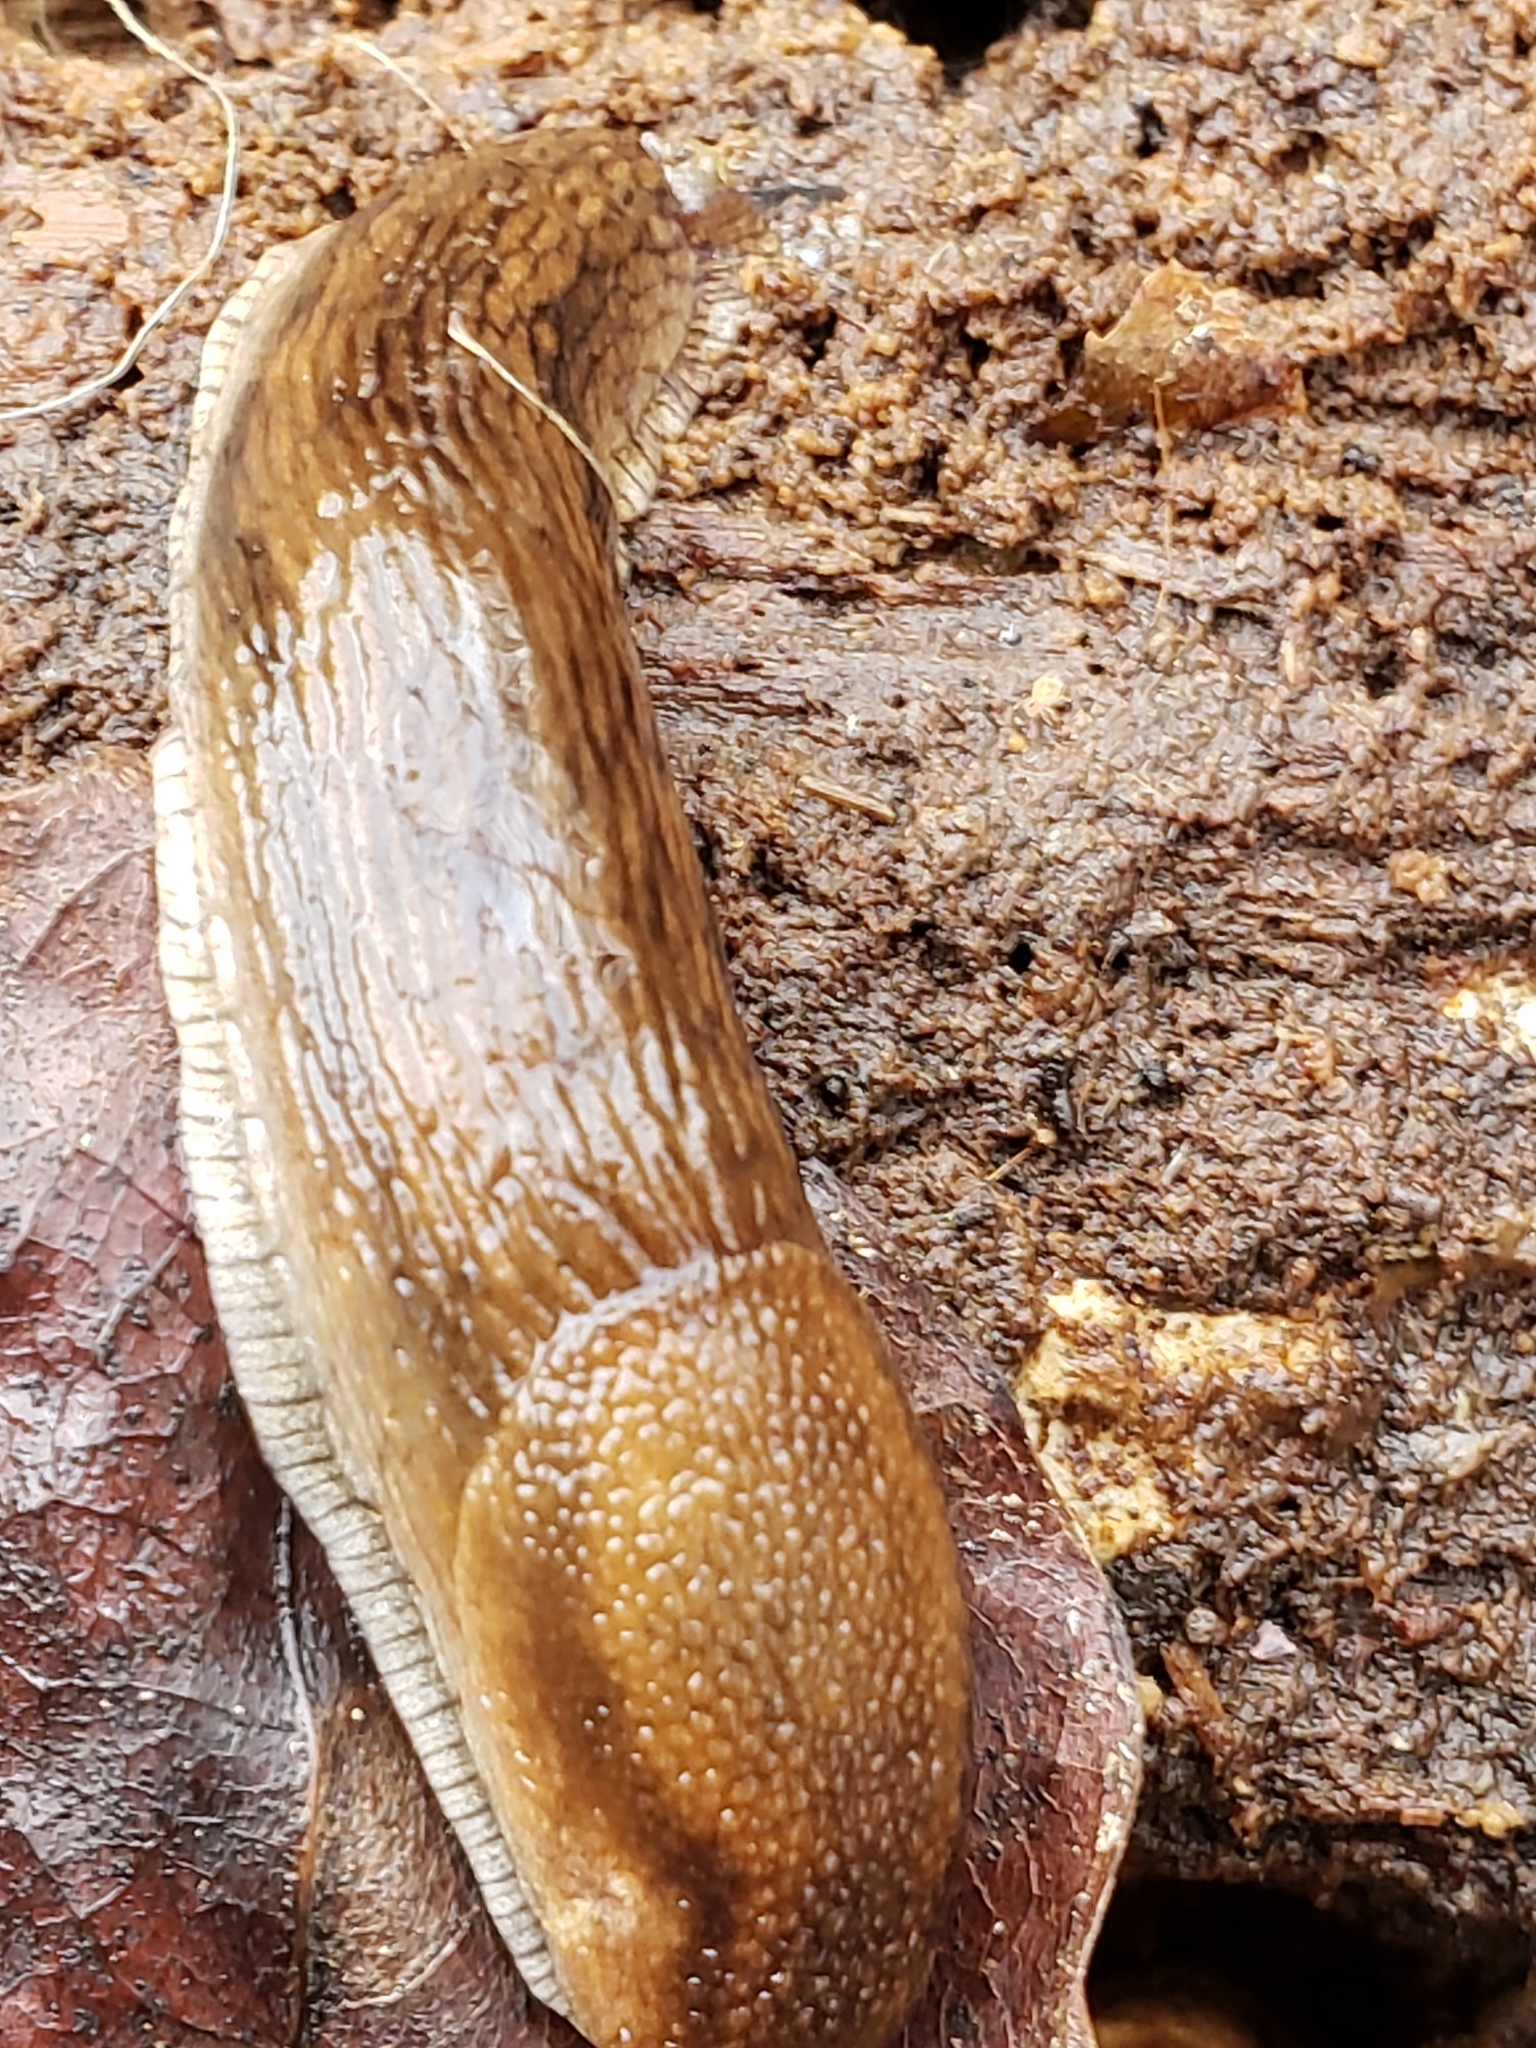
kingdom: Animalia
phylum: Mollusca
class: Gastropoda
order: Stylommatophora
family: Arionidae
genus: Arion
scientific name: Arion subfuscus
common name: Dusky arion
